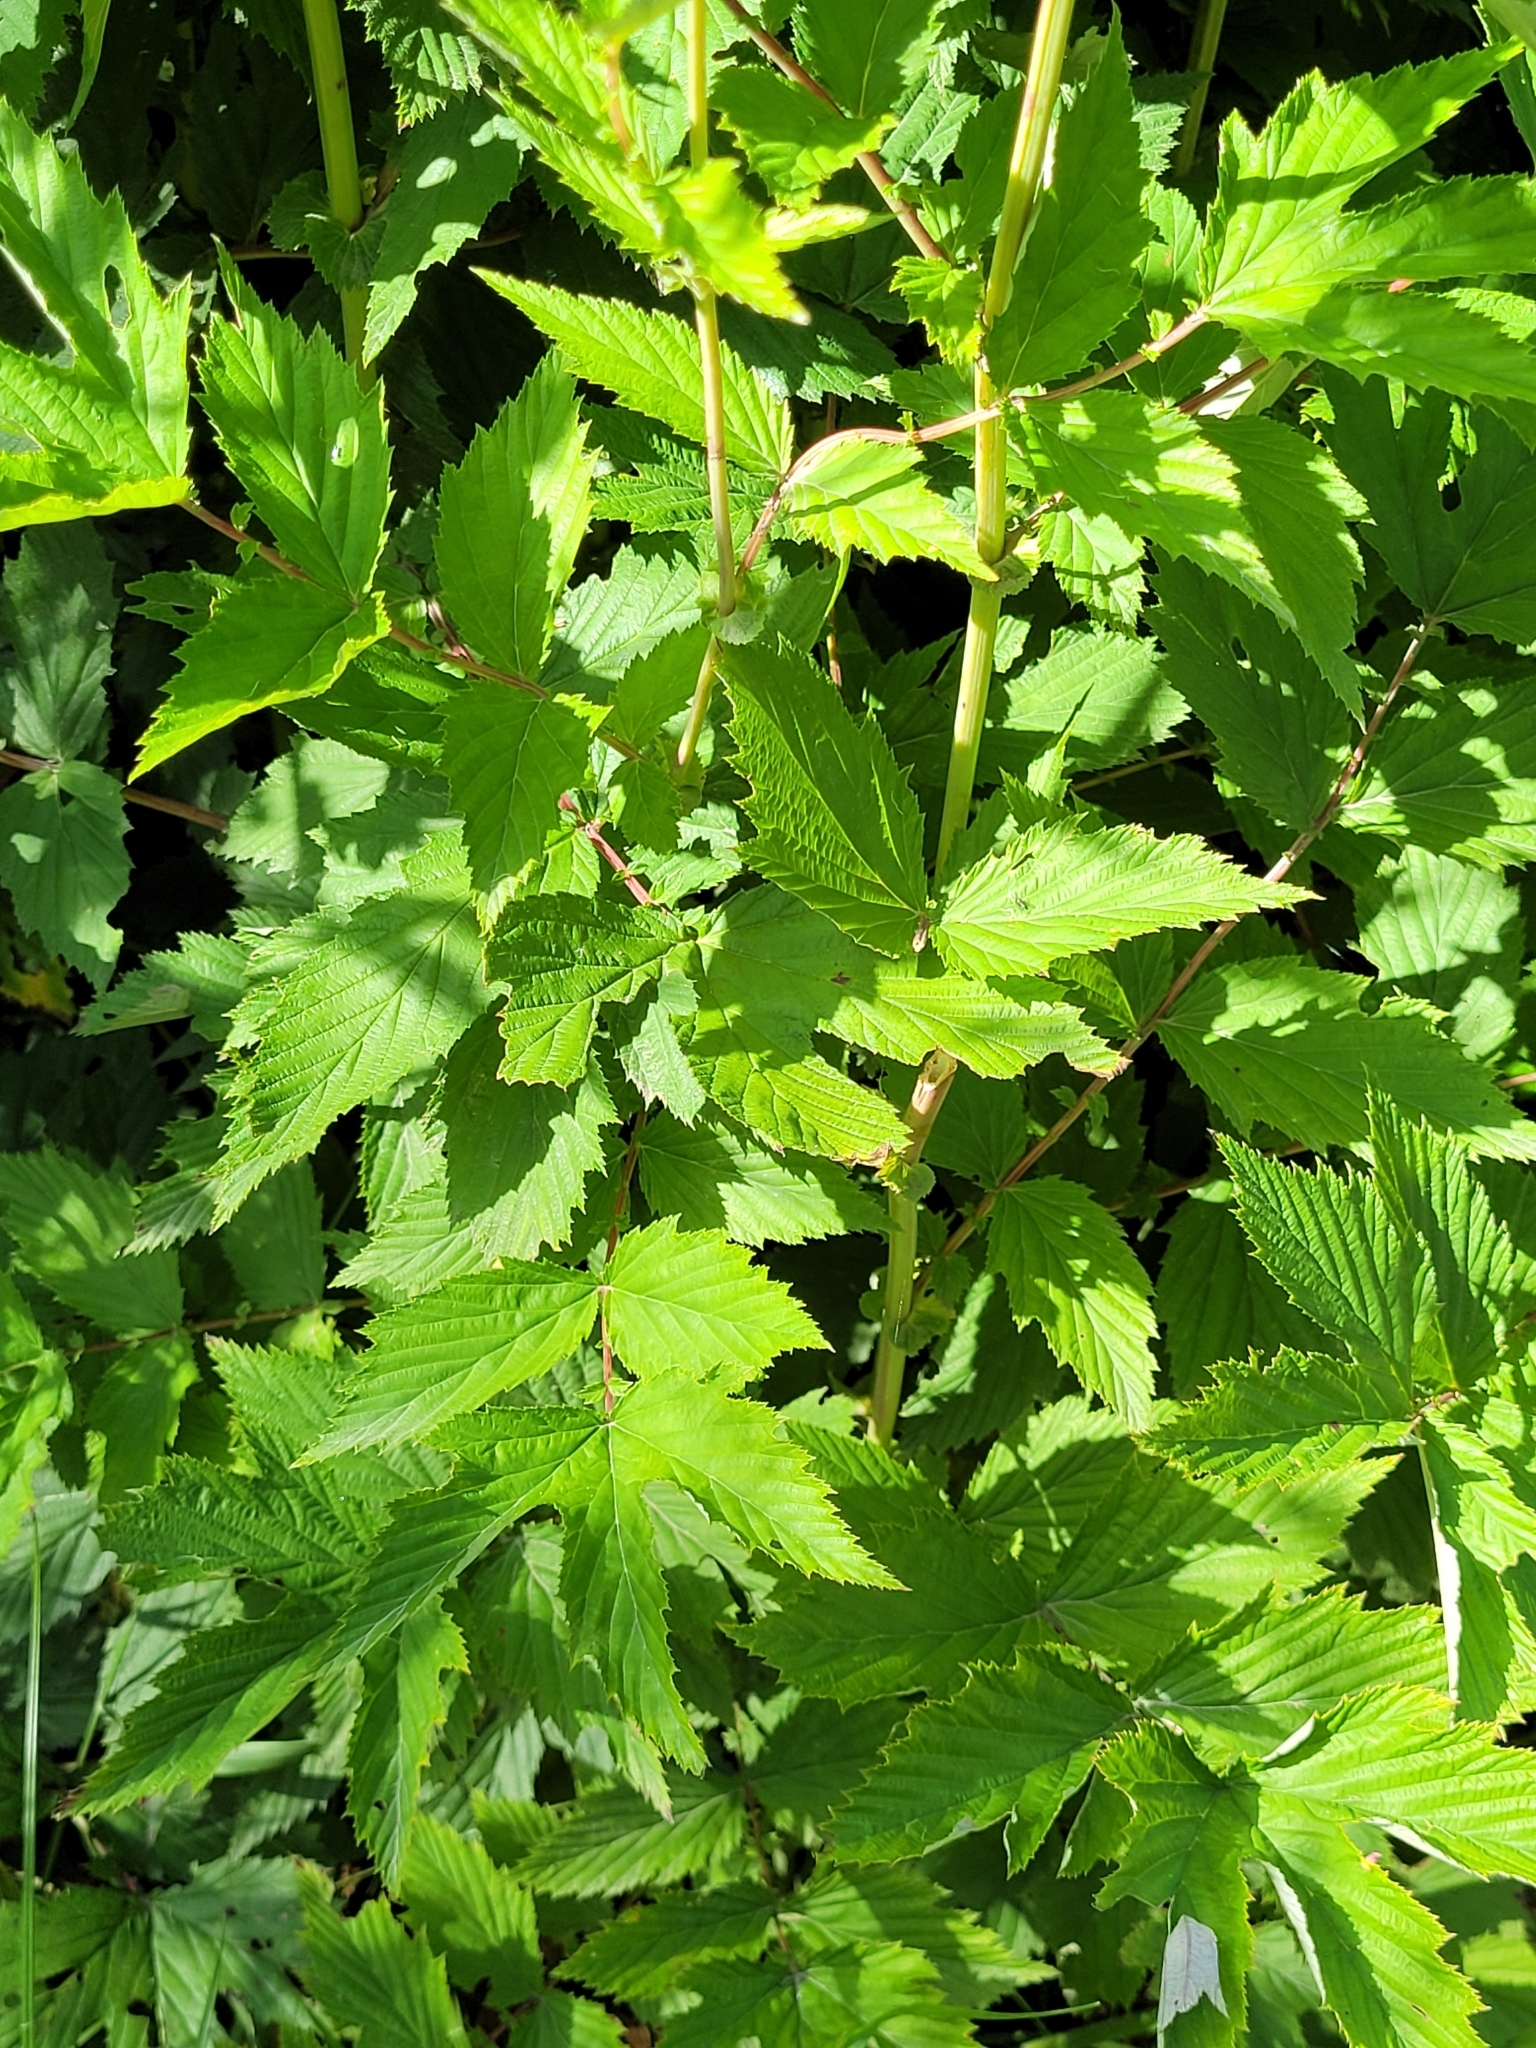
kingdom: Plantae
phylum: Tracheophyta
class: Magnoliopsida
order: Rosales
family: Rosaceae
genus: Filipendula
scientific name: Filipendula ulmaria
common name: Meadowsweet
